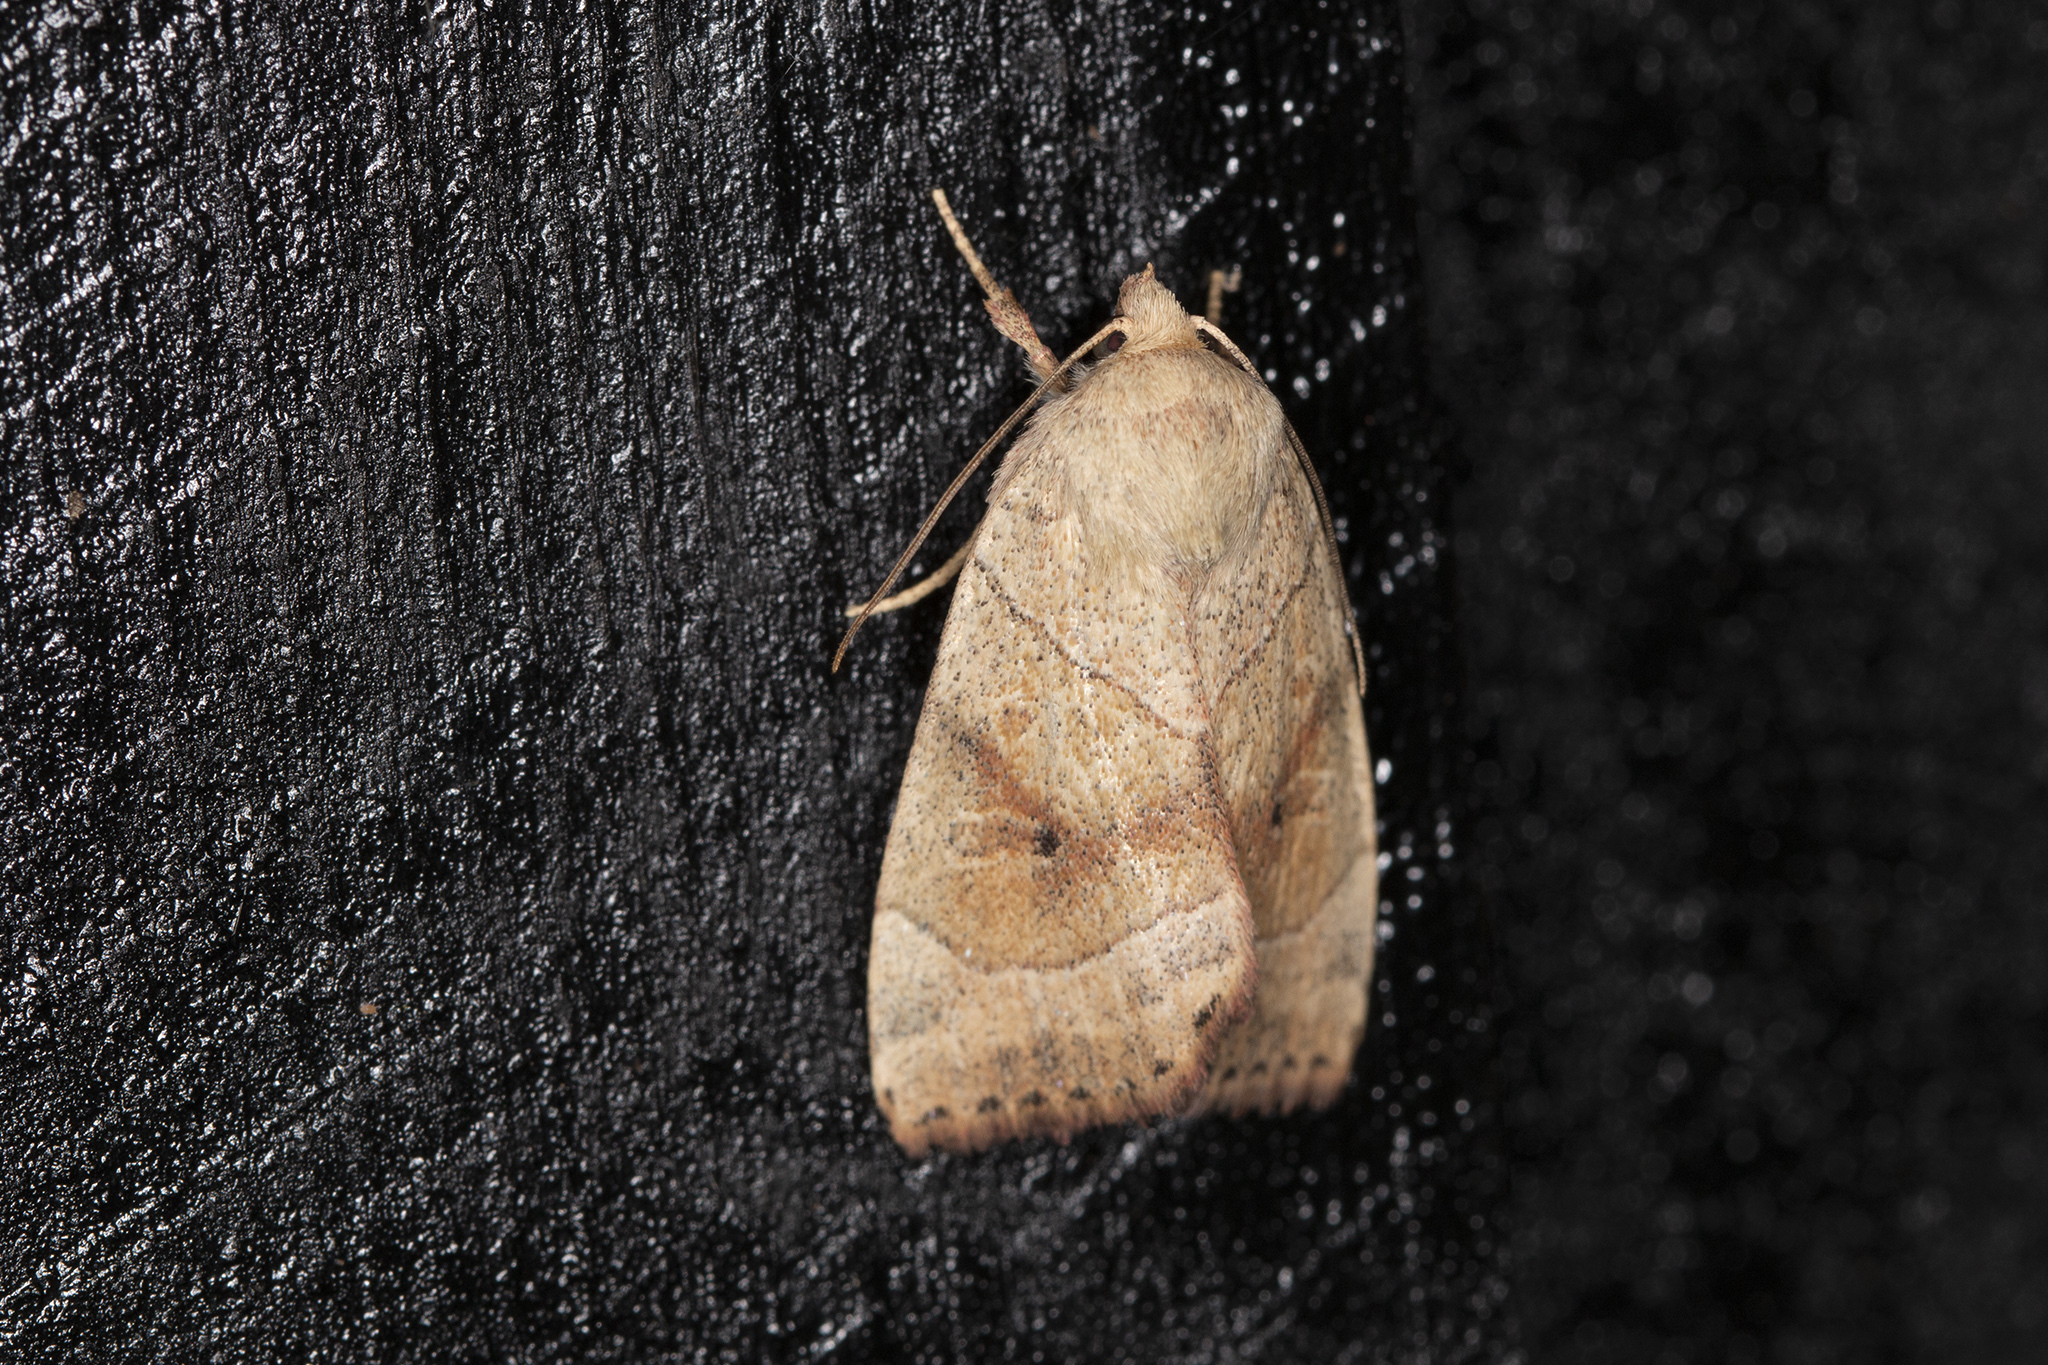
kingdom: Animalia
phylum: Arthropoda
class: Insecta
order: Lepidoptera
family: Noctuidae
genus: Cosmia
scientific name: Cosmia trapezina
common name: Dun-bar
